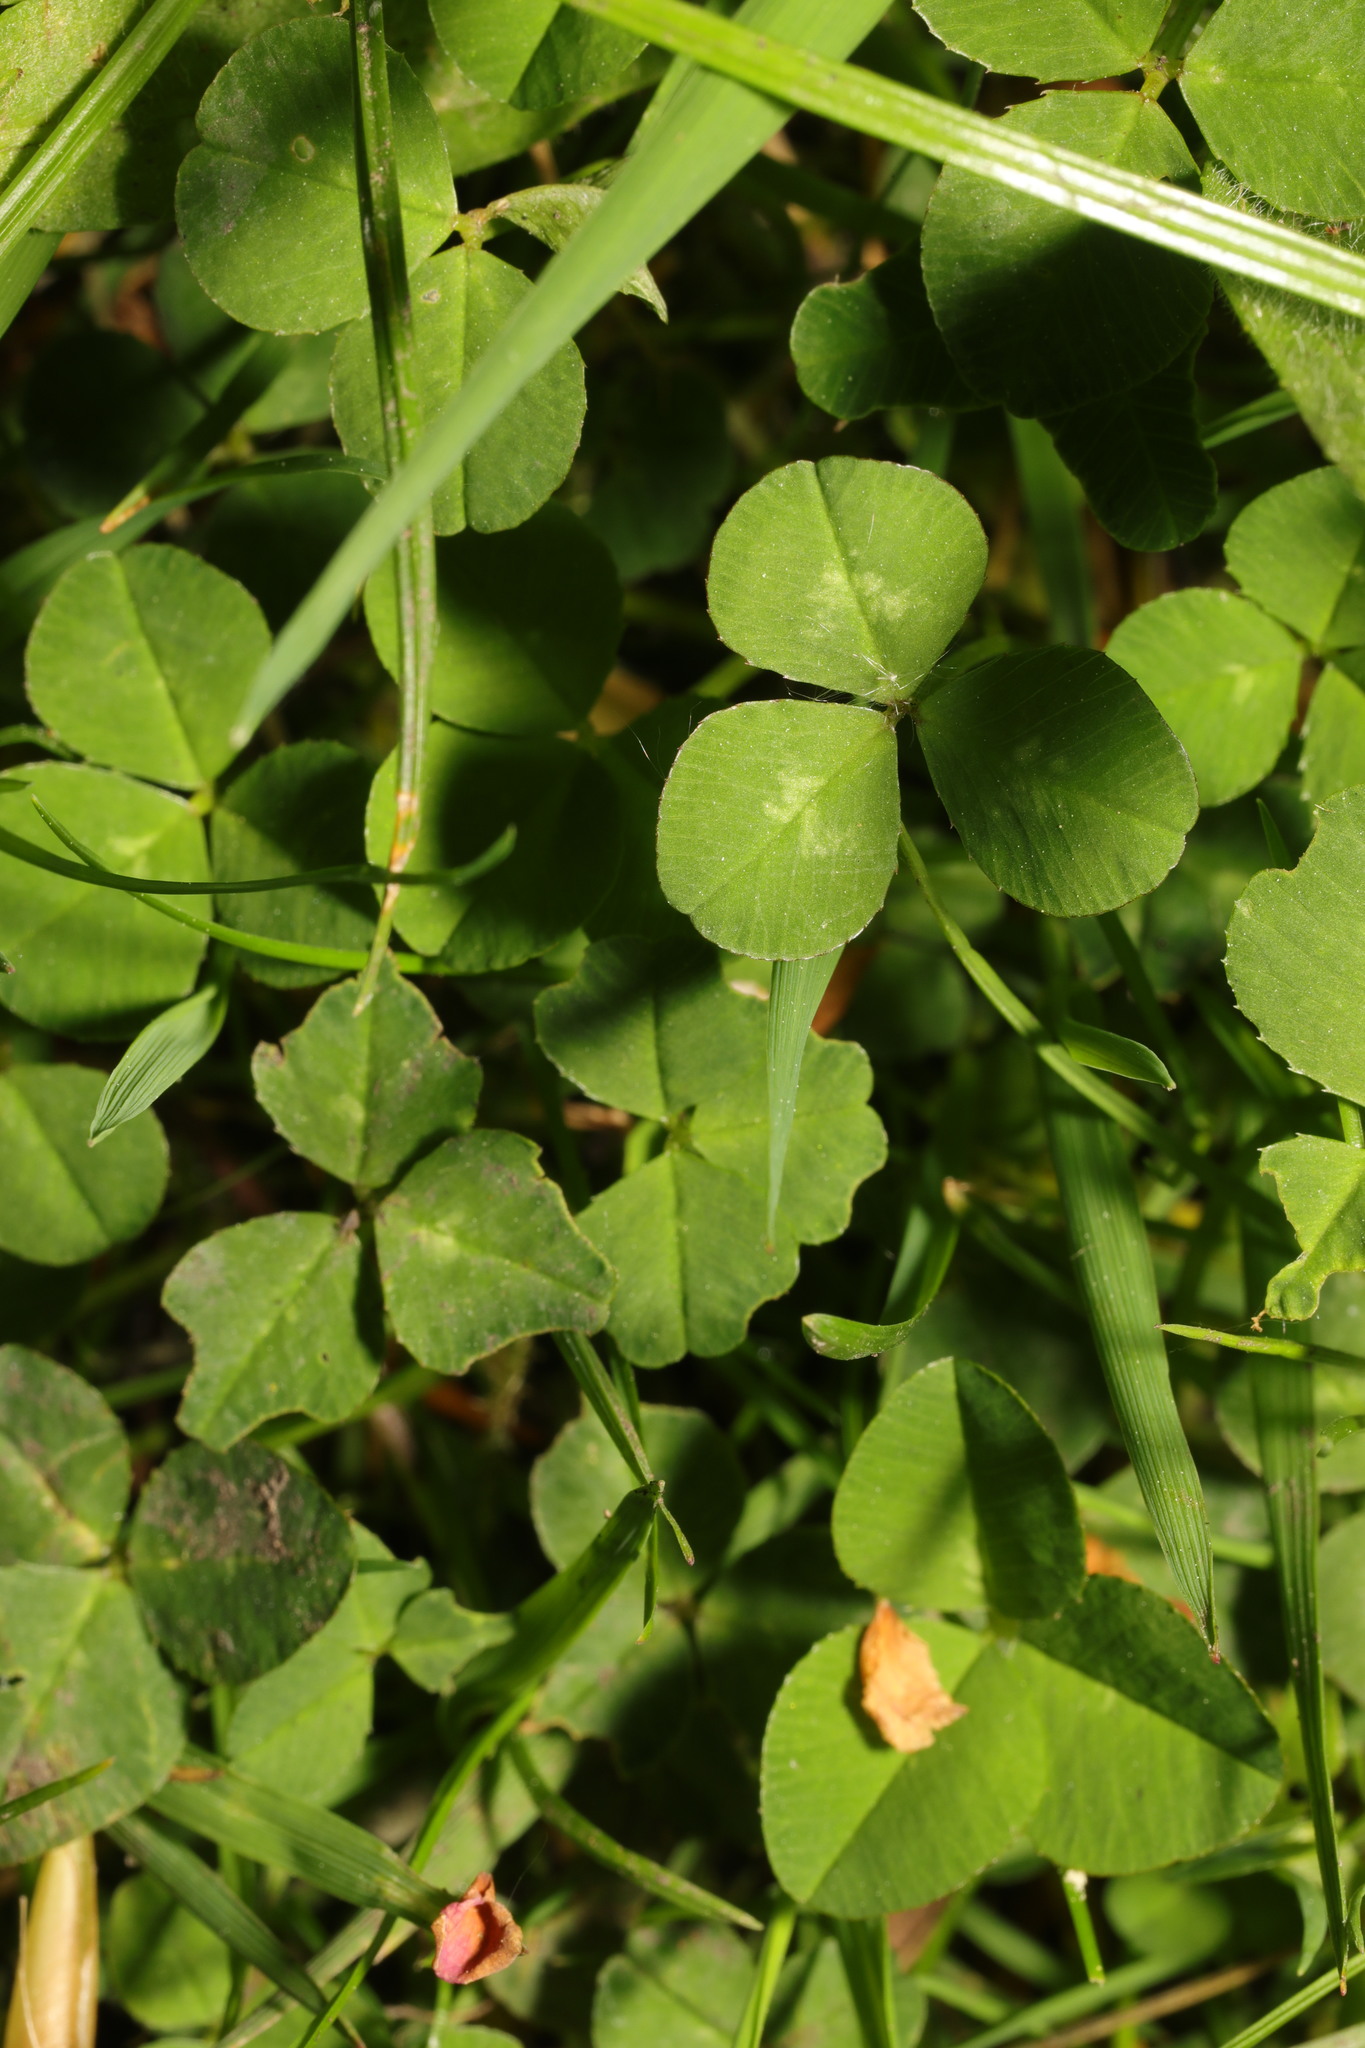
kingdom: Plantae
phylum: Tracheophyta
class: Magnoliopsida
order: Fabales
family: Fabaceae
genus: Trifolium
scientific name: Trifolium repens
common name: White clover
